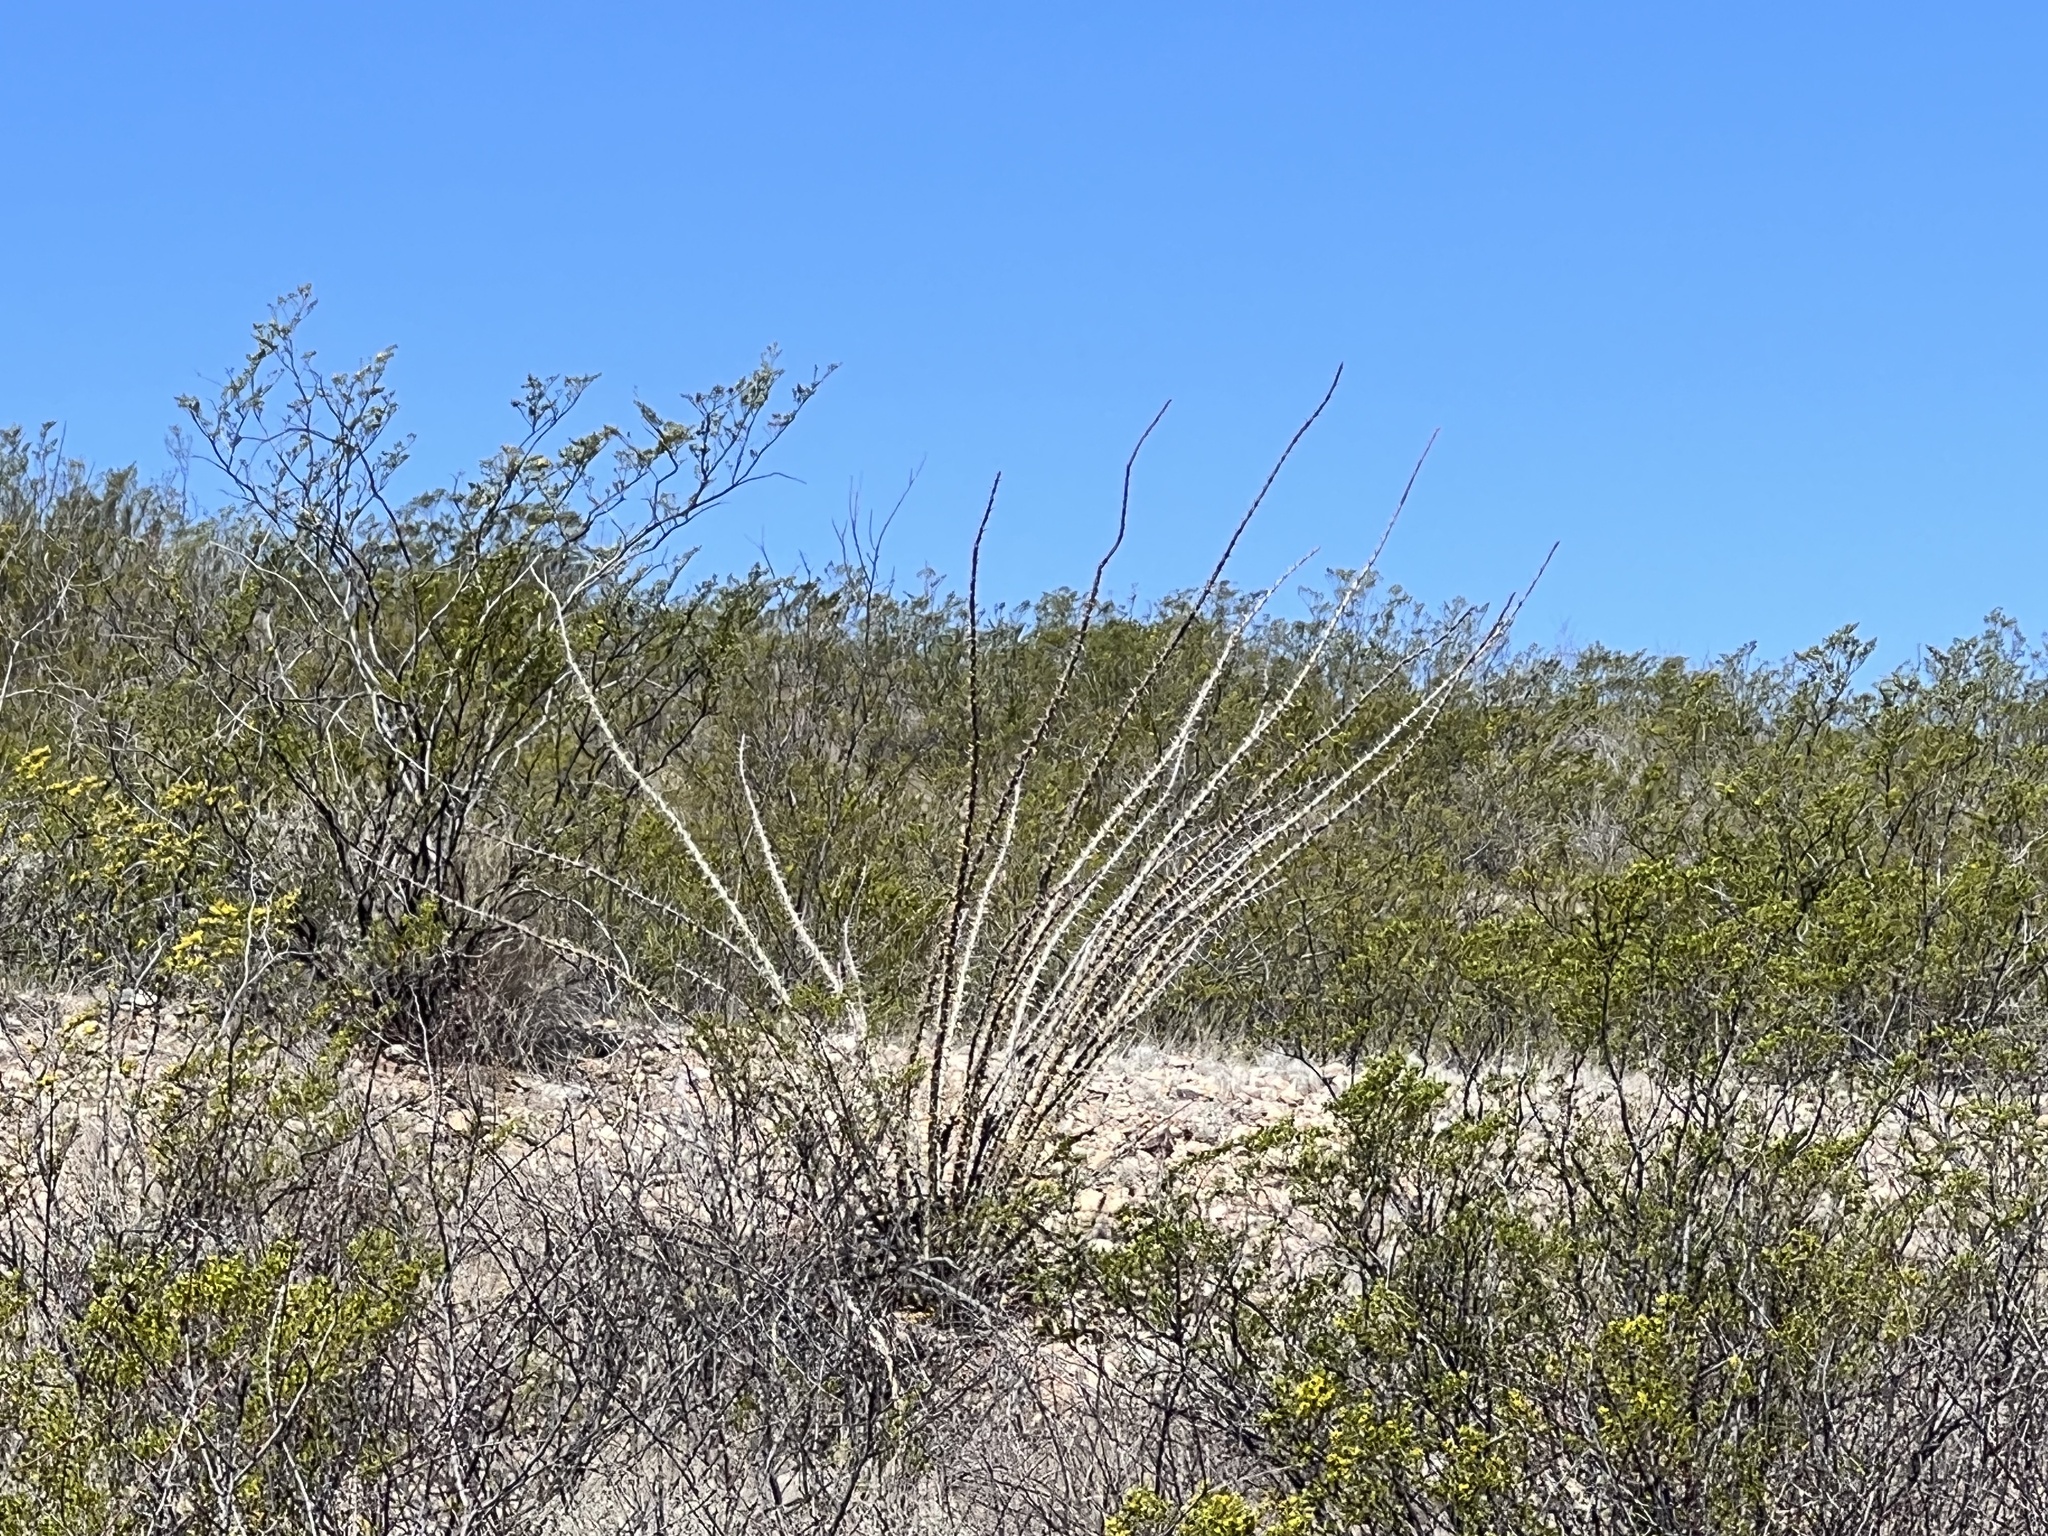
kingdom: Plantae
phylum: Tracheophyta
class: Magnoliopsida
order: Ericales
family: Fouquieriaceae
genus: Fouquieria
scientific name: Fouquieria splendens
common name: Vine-cactus
